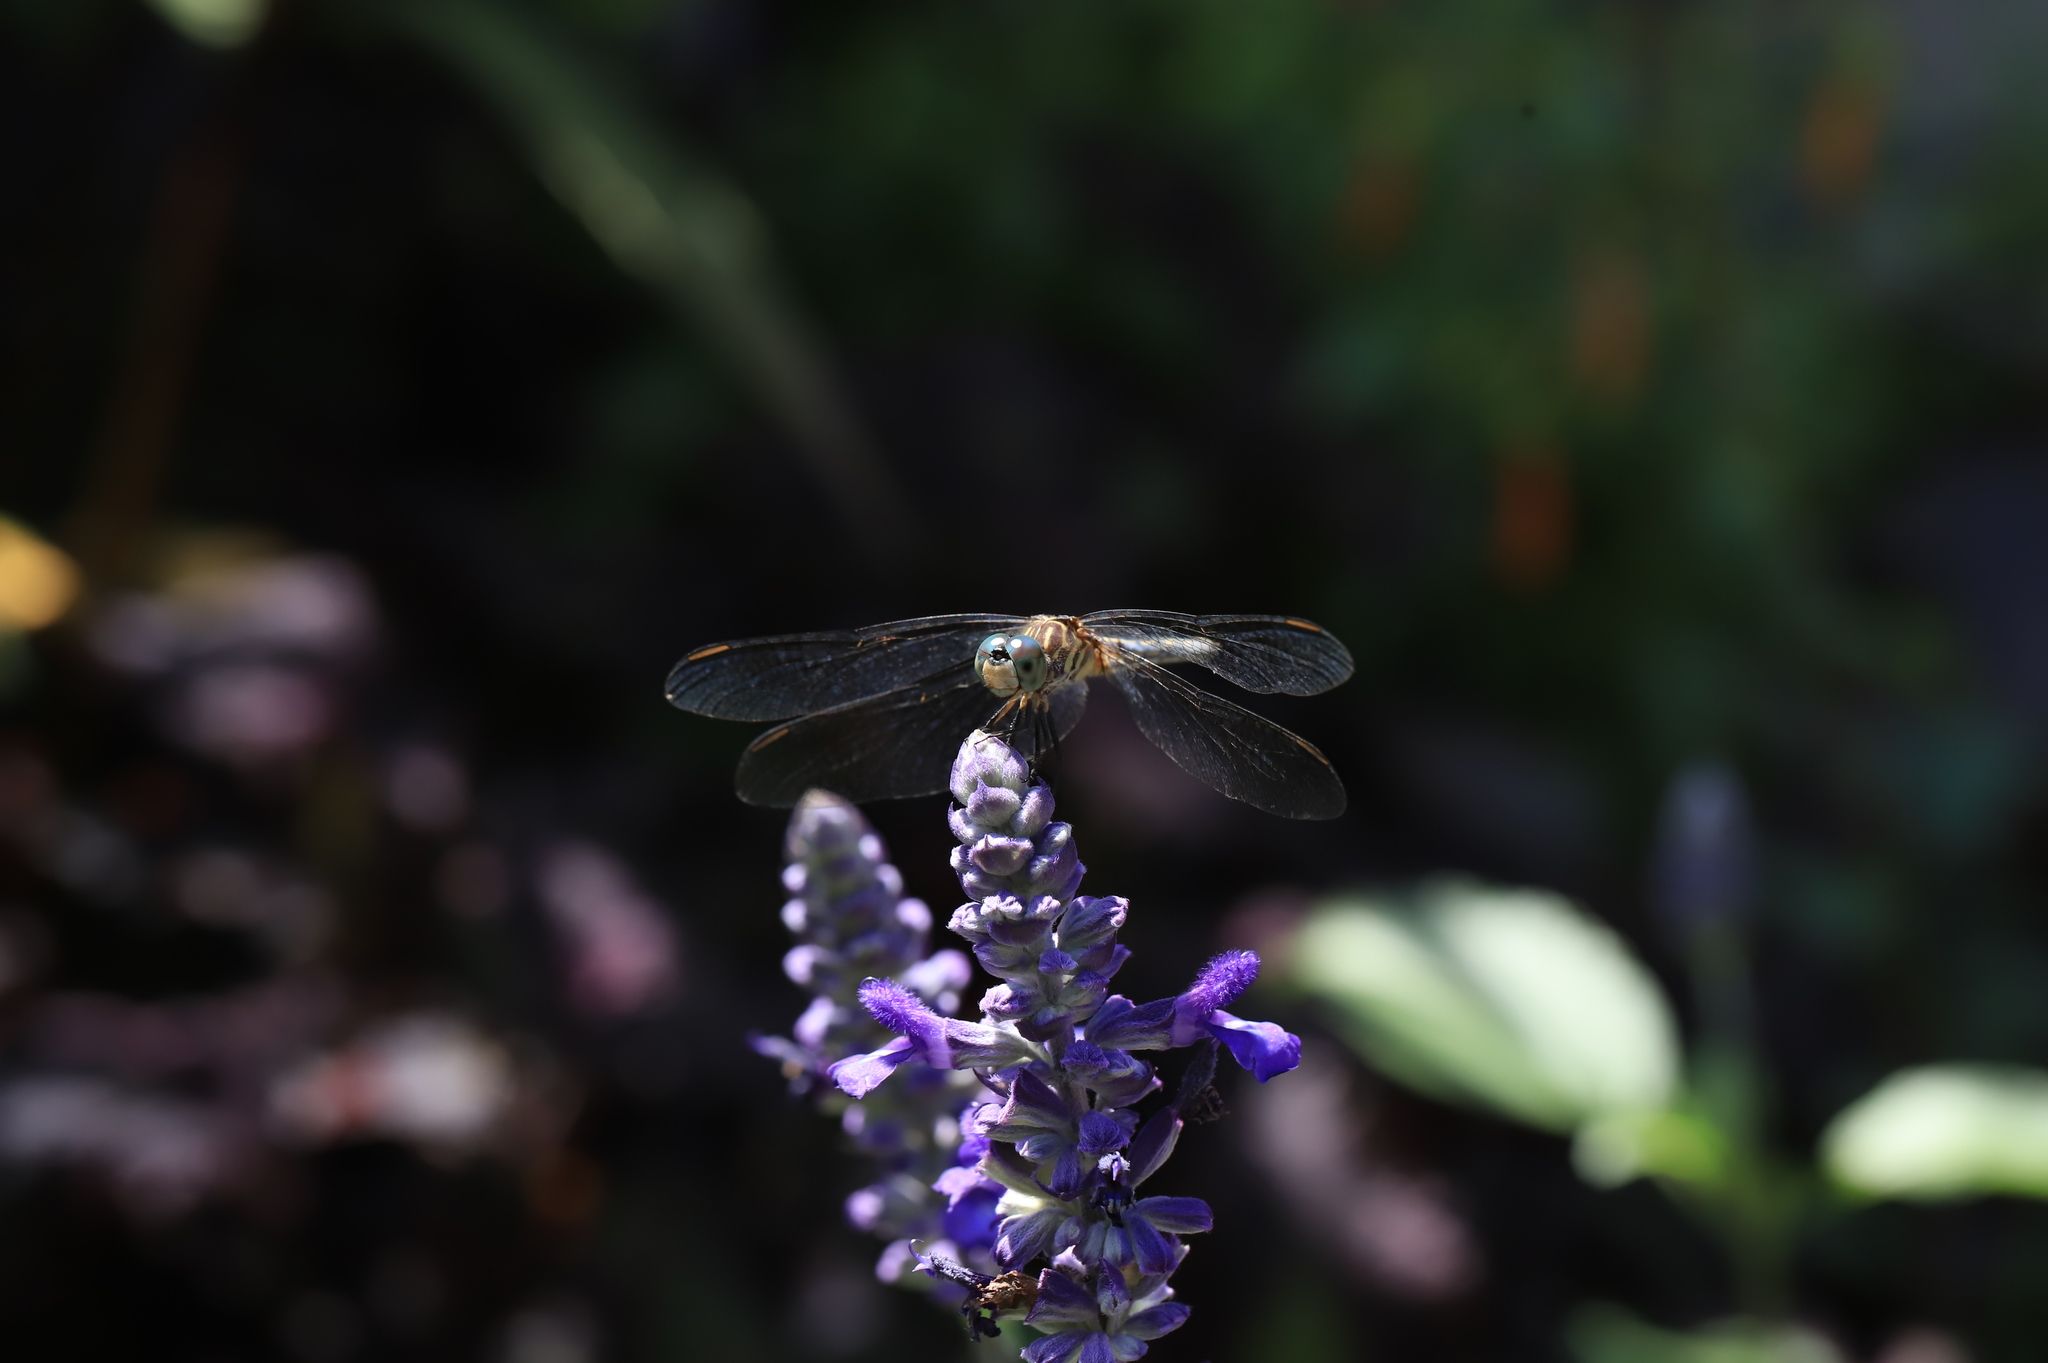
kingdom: Animalia
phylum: Arthropoda
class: Insecta
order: Odonata
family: Libellulidae
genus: Pachydiplax
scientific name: Pachydiplax longipennis
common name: Blue dasher
